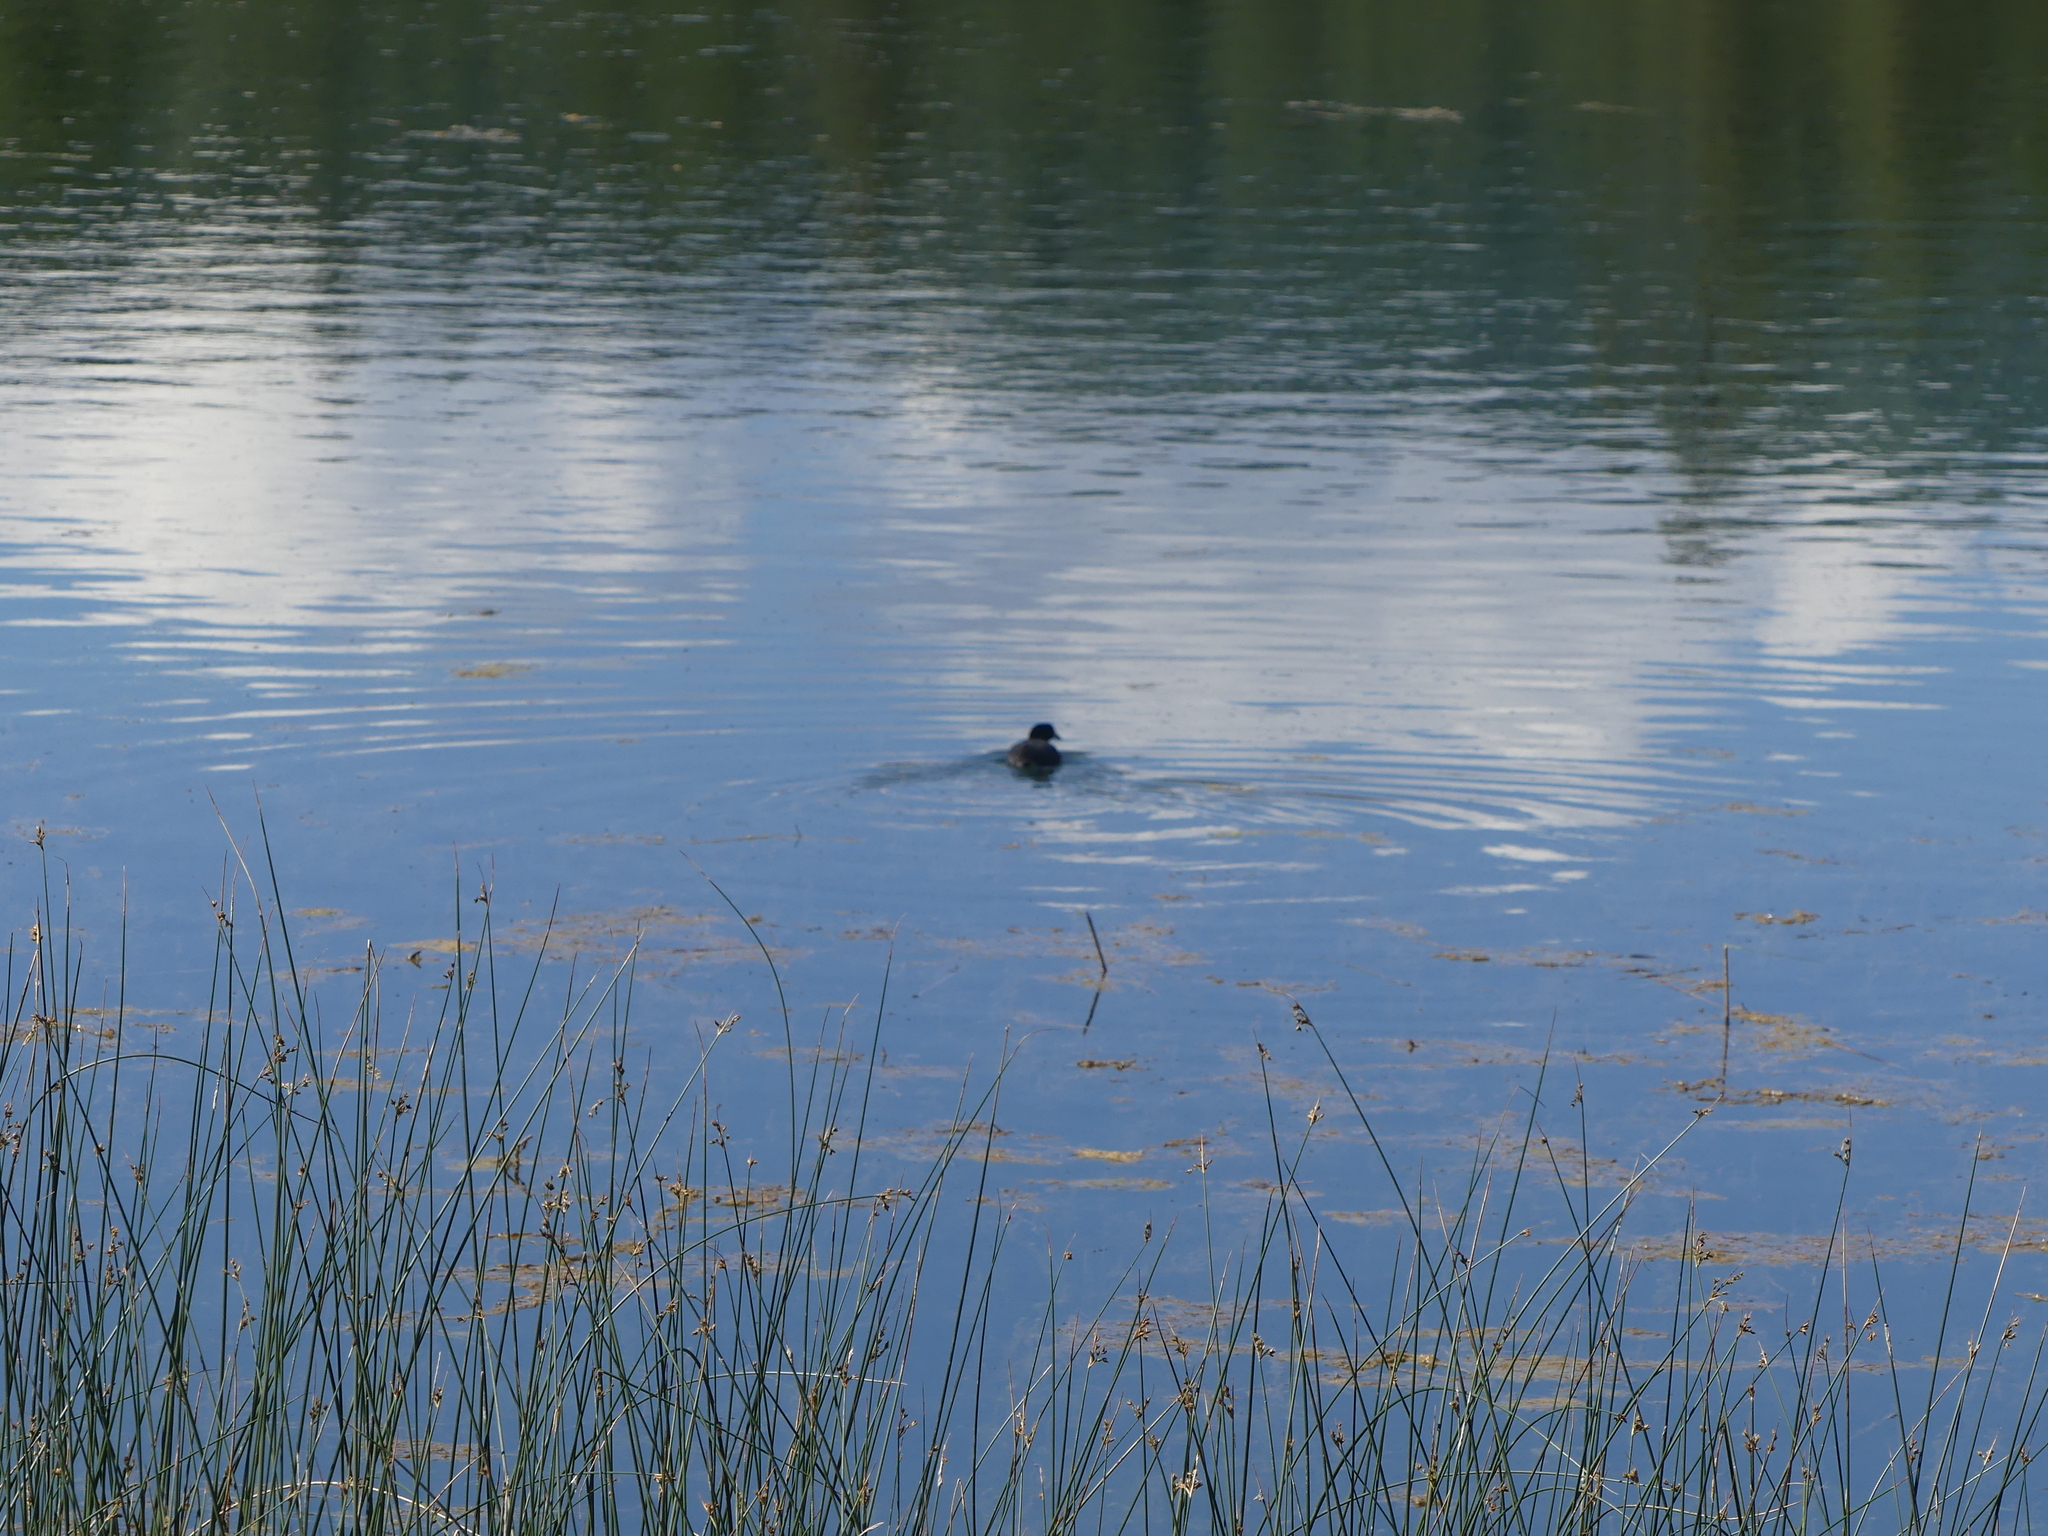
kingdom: Animalia
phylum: Chordata
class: Aves
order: Gruiformes
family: Rallidae
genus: Fulica
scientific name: Fulica americana
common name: American coot
